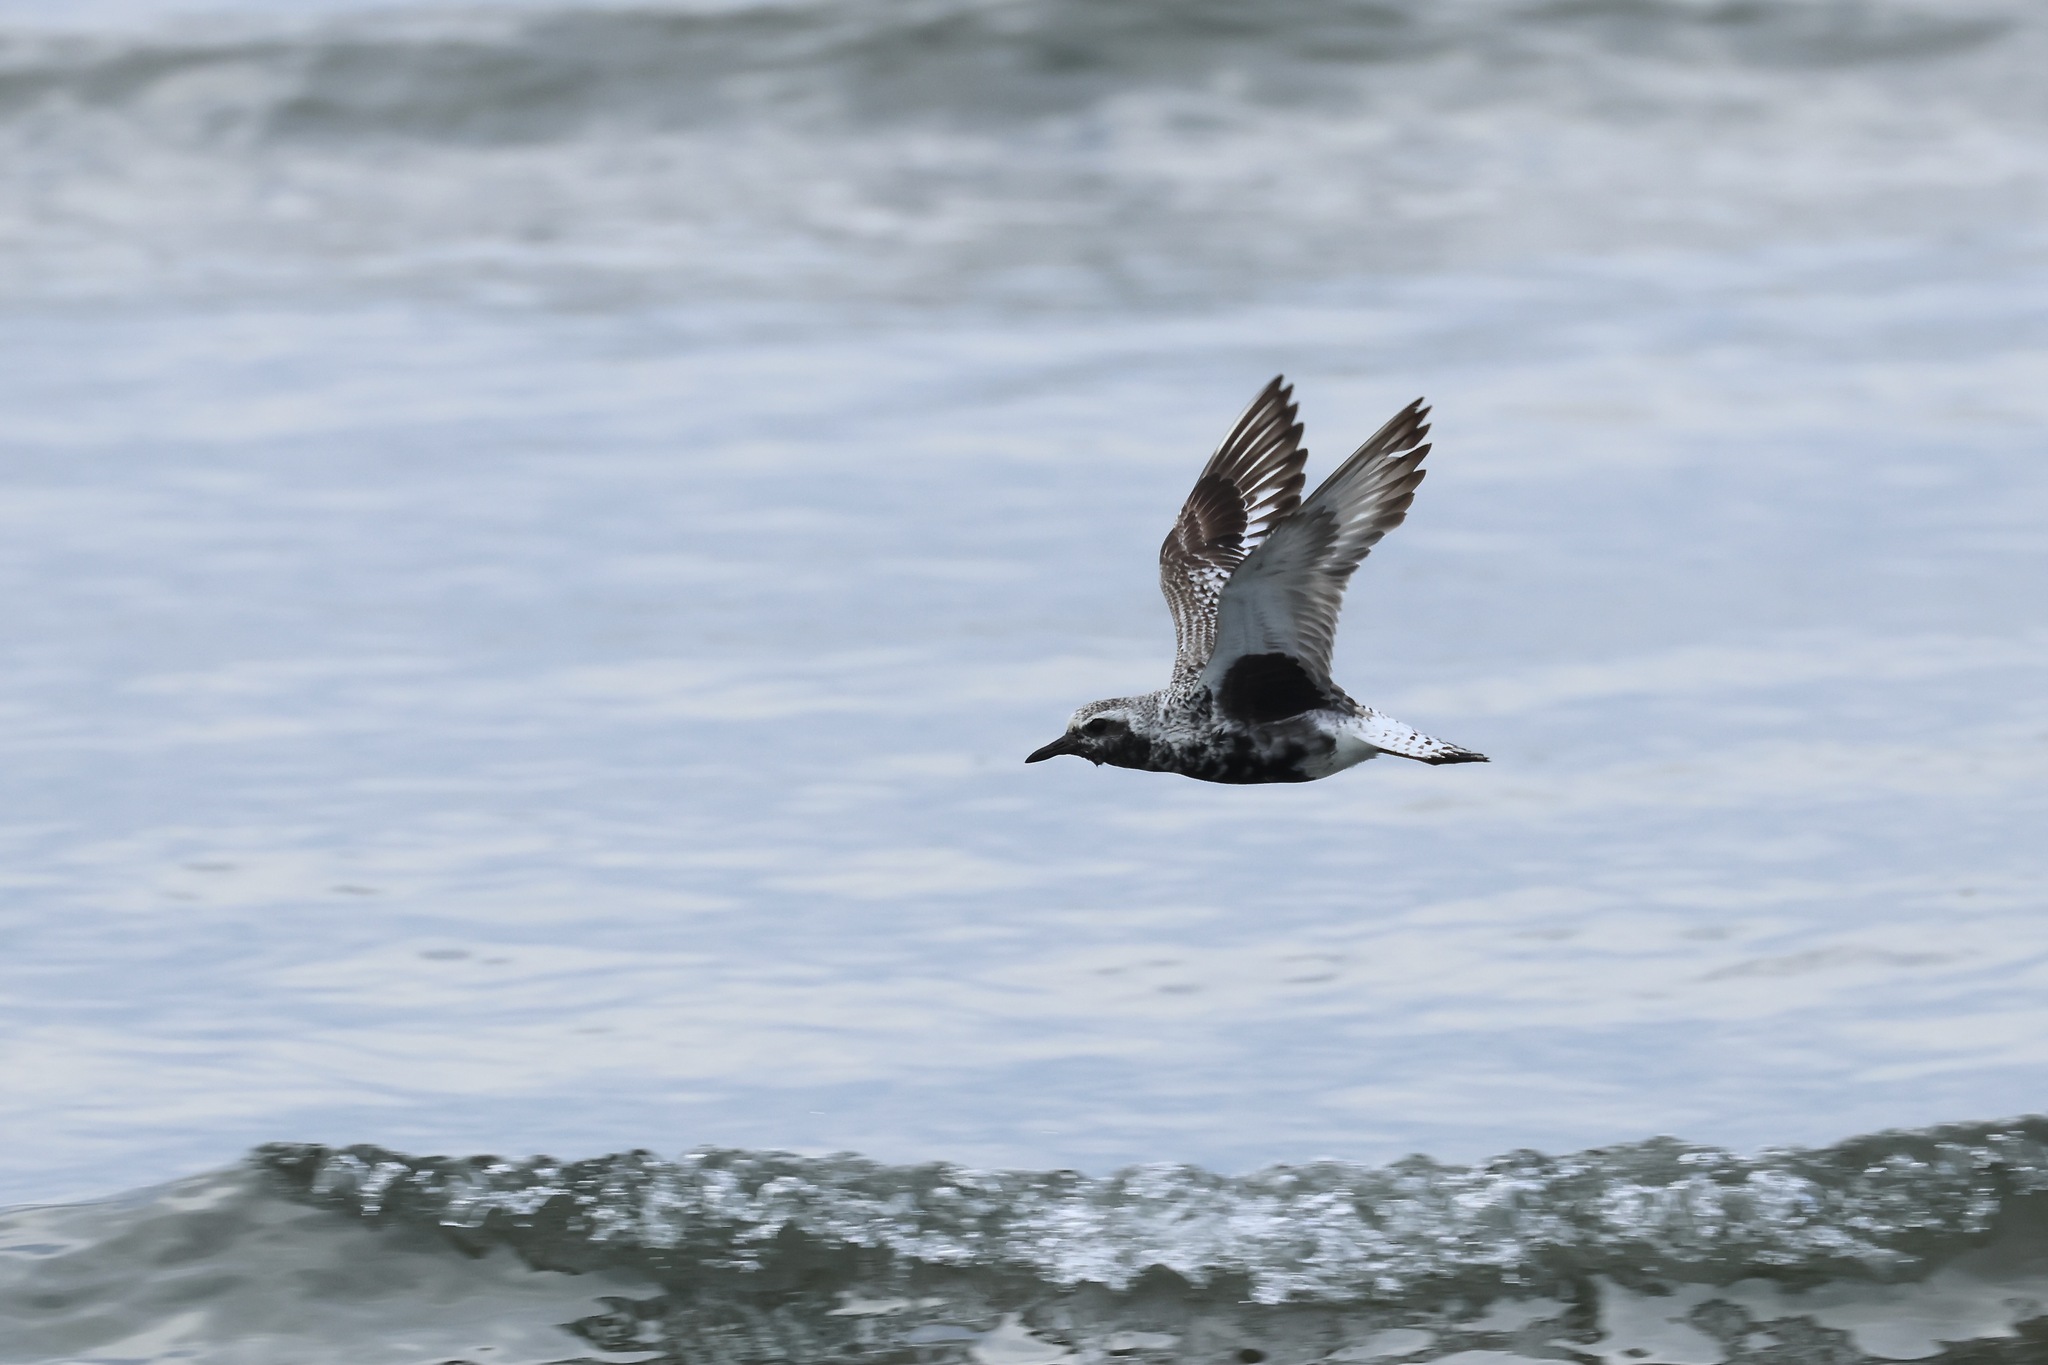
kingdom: Animalia
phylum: Chordata
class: Aves
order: Charadriiformes
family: Charadriidae
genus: Pluvialis
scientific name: Pluvialis squatarola
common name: Grey plover
